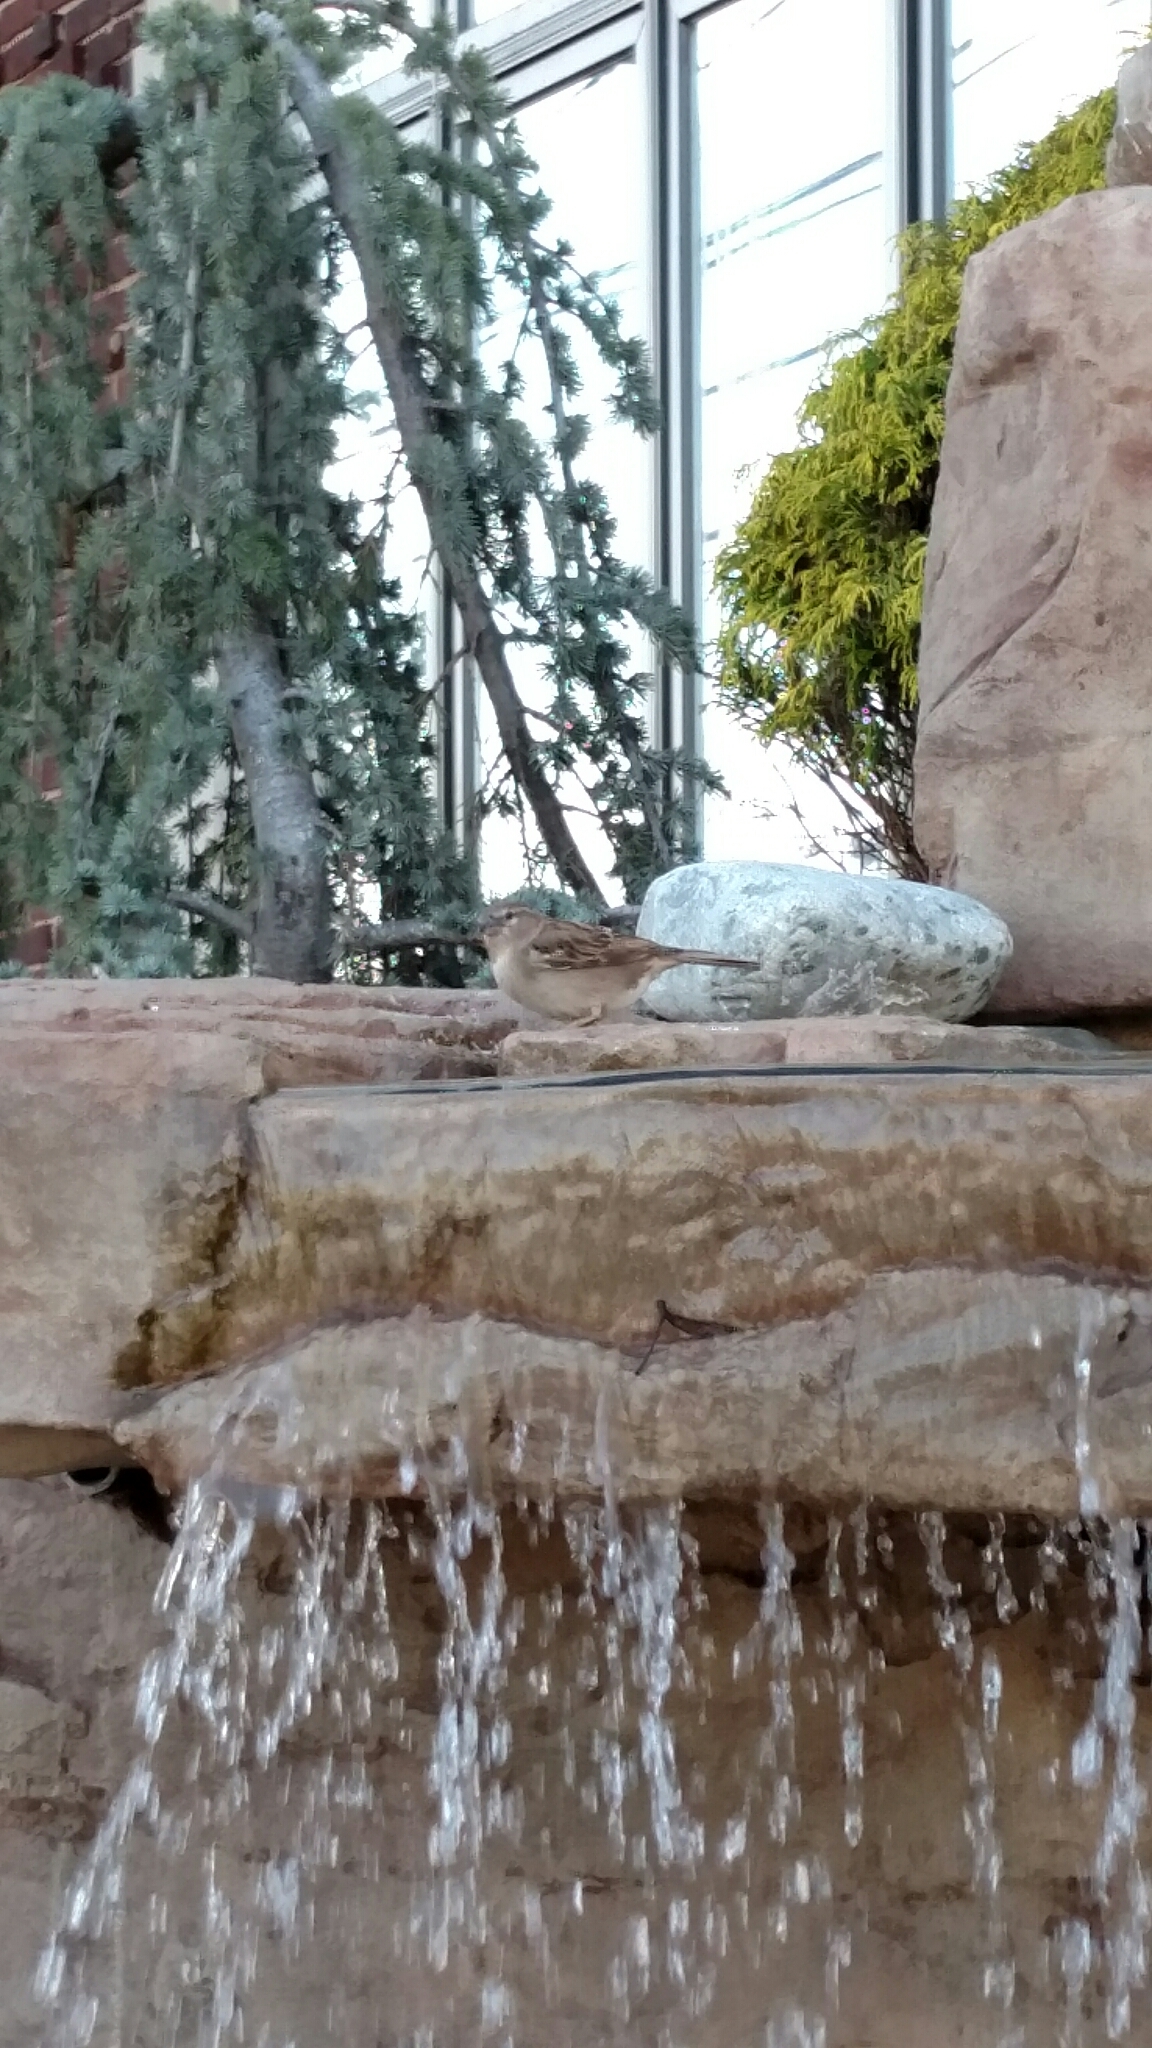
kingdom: Animalia
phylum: Chordata
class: Aves
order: Passeriformes
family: Passeridae
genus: Passer
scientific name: Passer domesticus
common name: House sparrow
